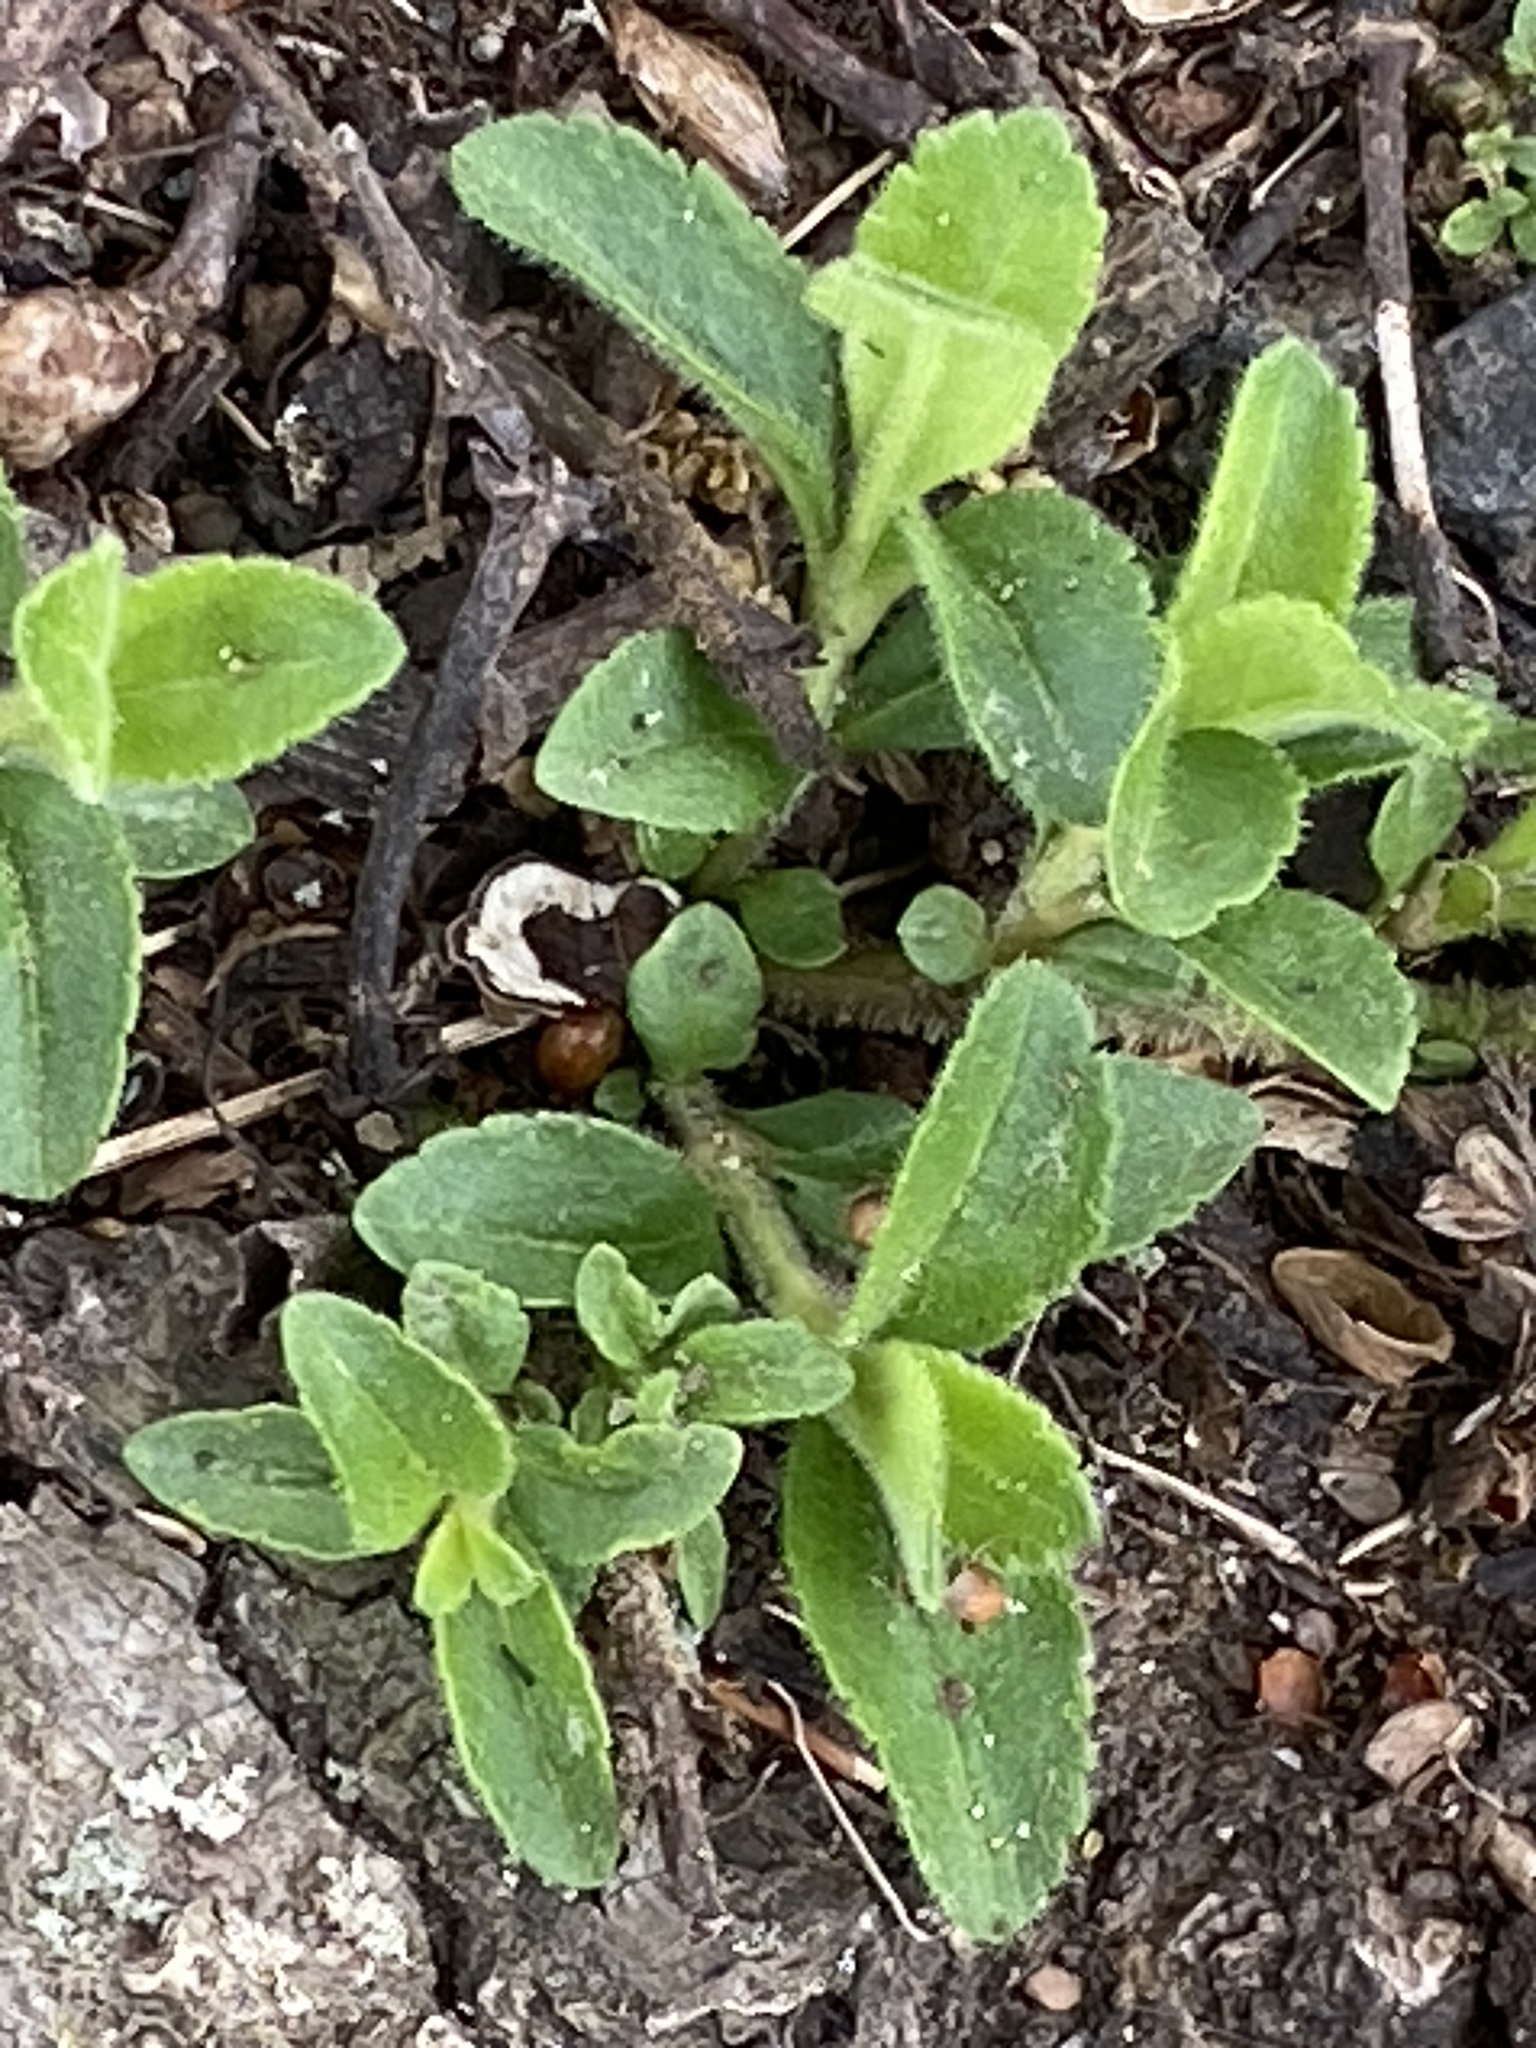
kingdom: Plantae
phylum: Tracheophyta
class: Magnoliopsida
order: Lamiales
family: Plantaginaceae
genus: Veronica
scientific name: Veronica officinalis
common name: Common speedwell
